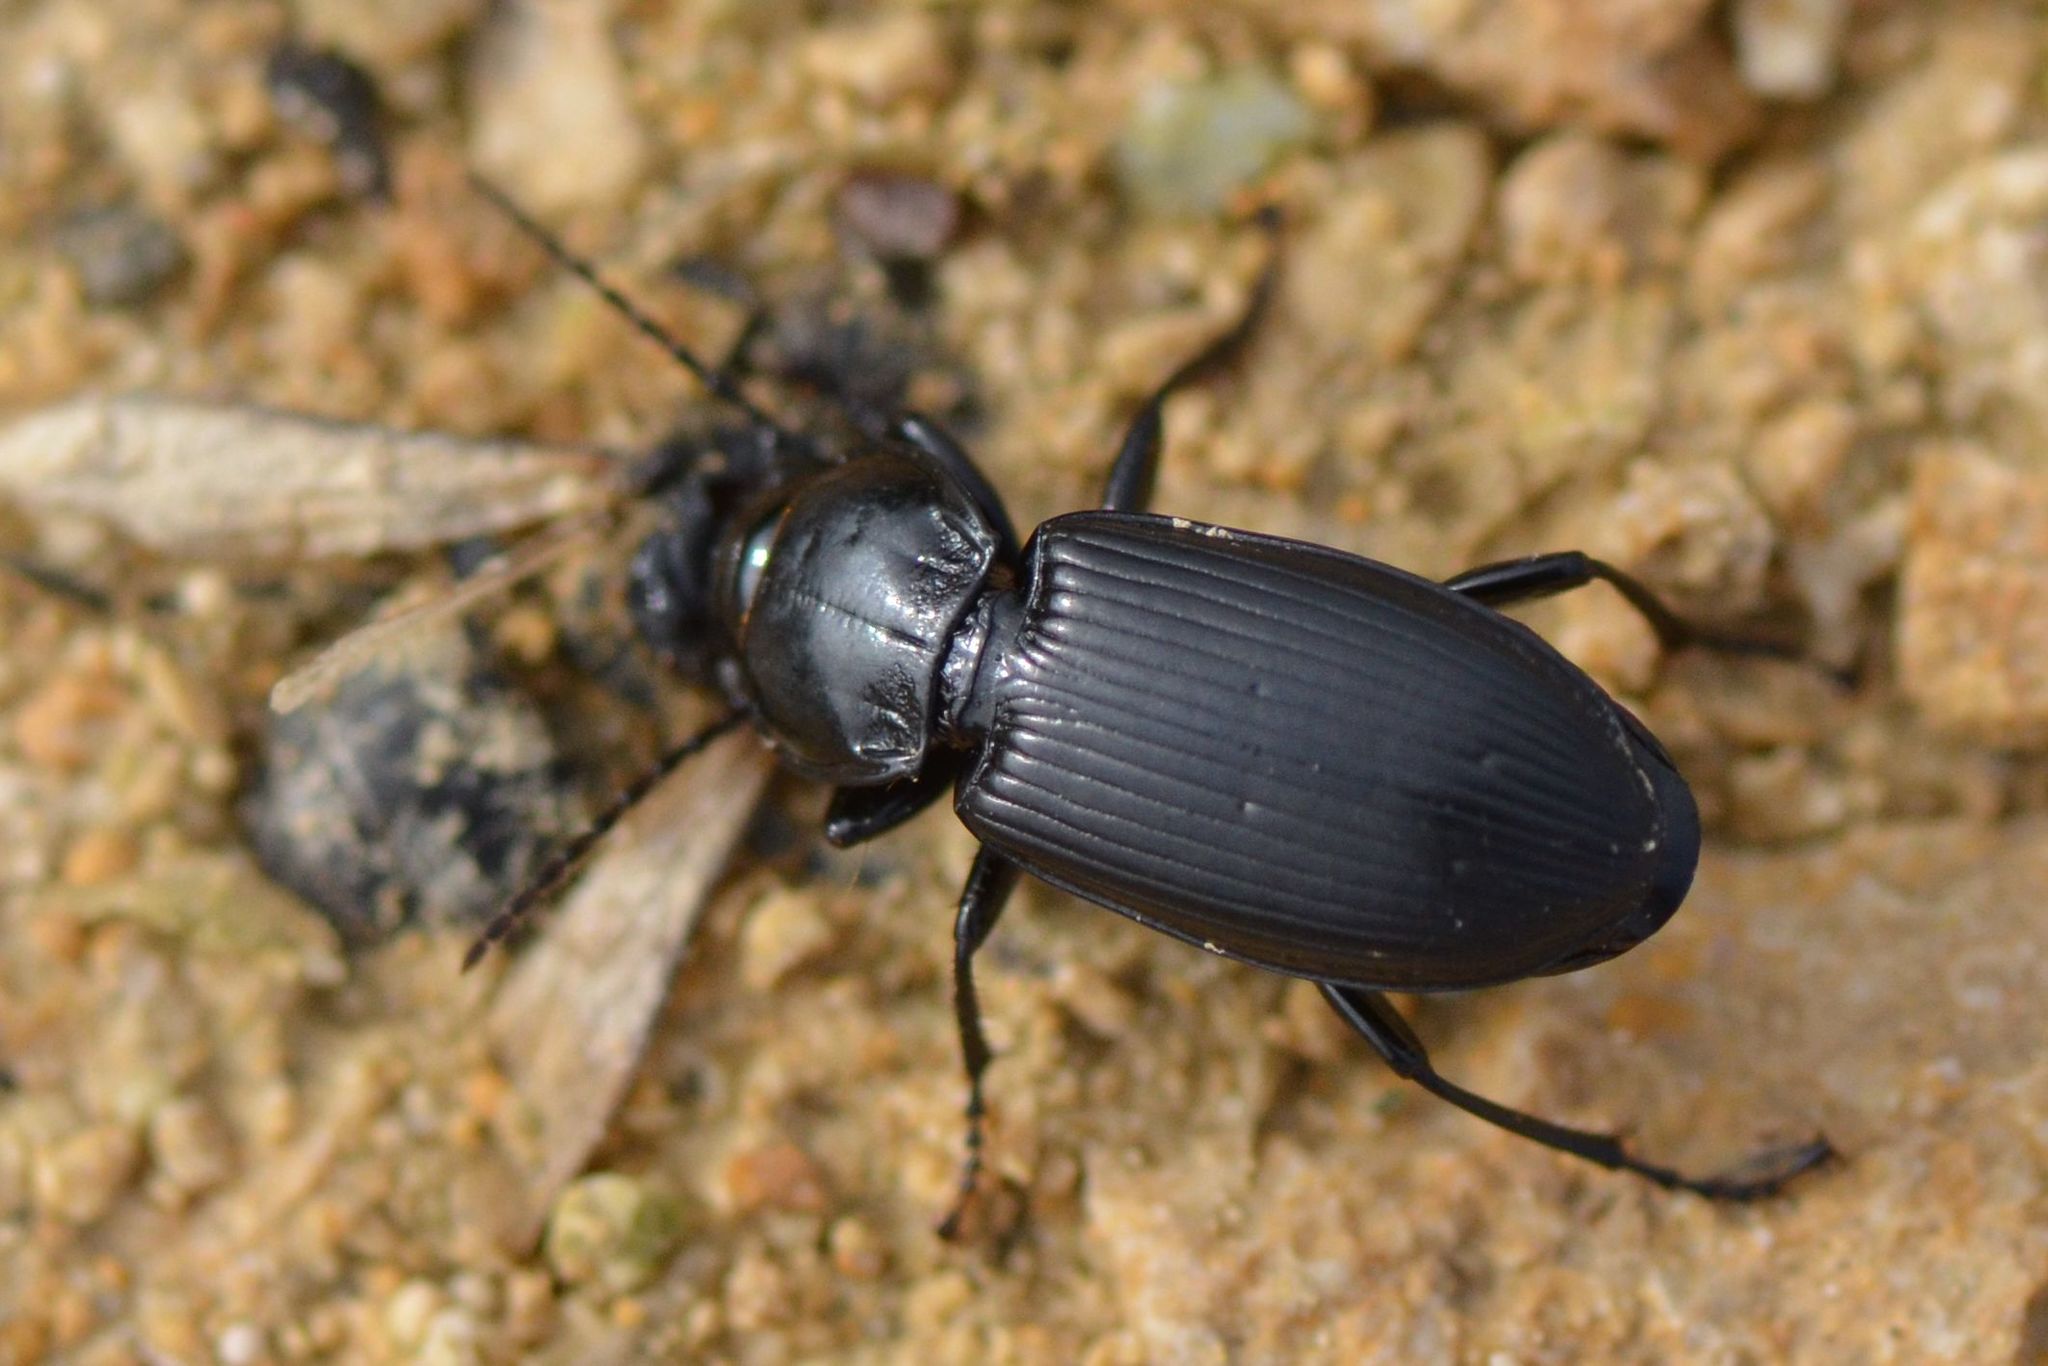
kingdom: Animalia
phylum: Arthropoda
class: Insecta
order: Coleoptera
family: Carabidae
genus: Pterostichus
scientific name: Pterostichus melanarius
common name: European dark harp ground beetle
